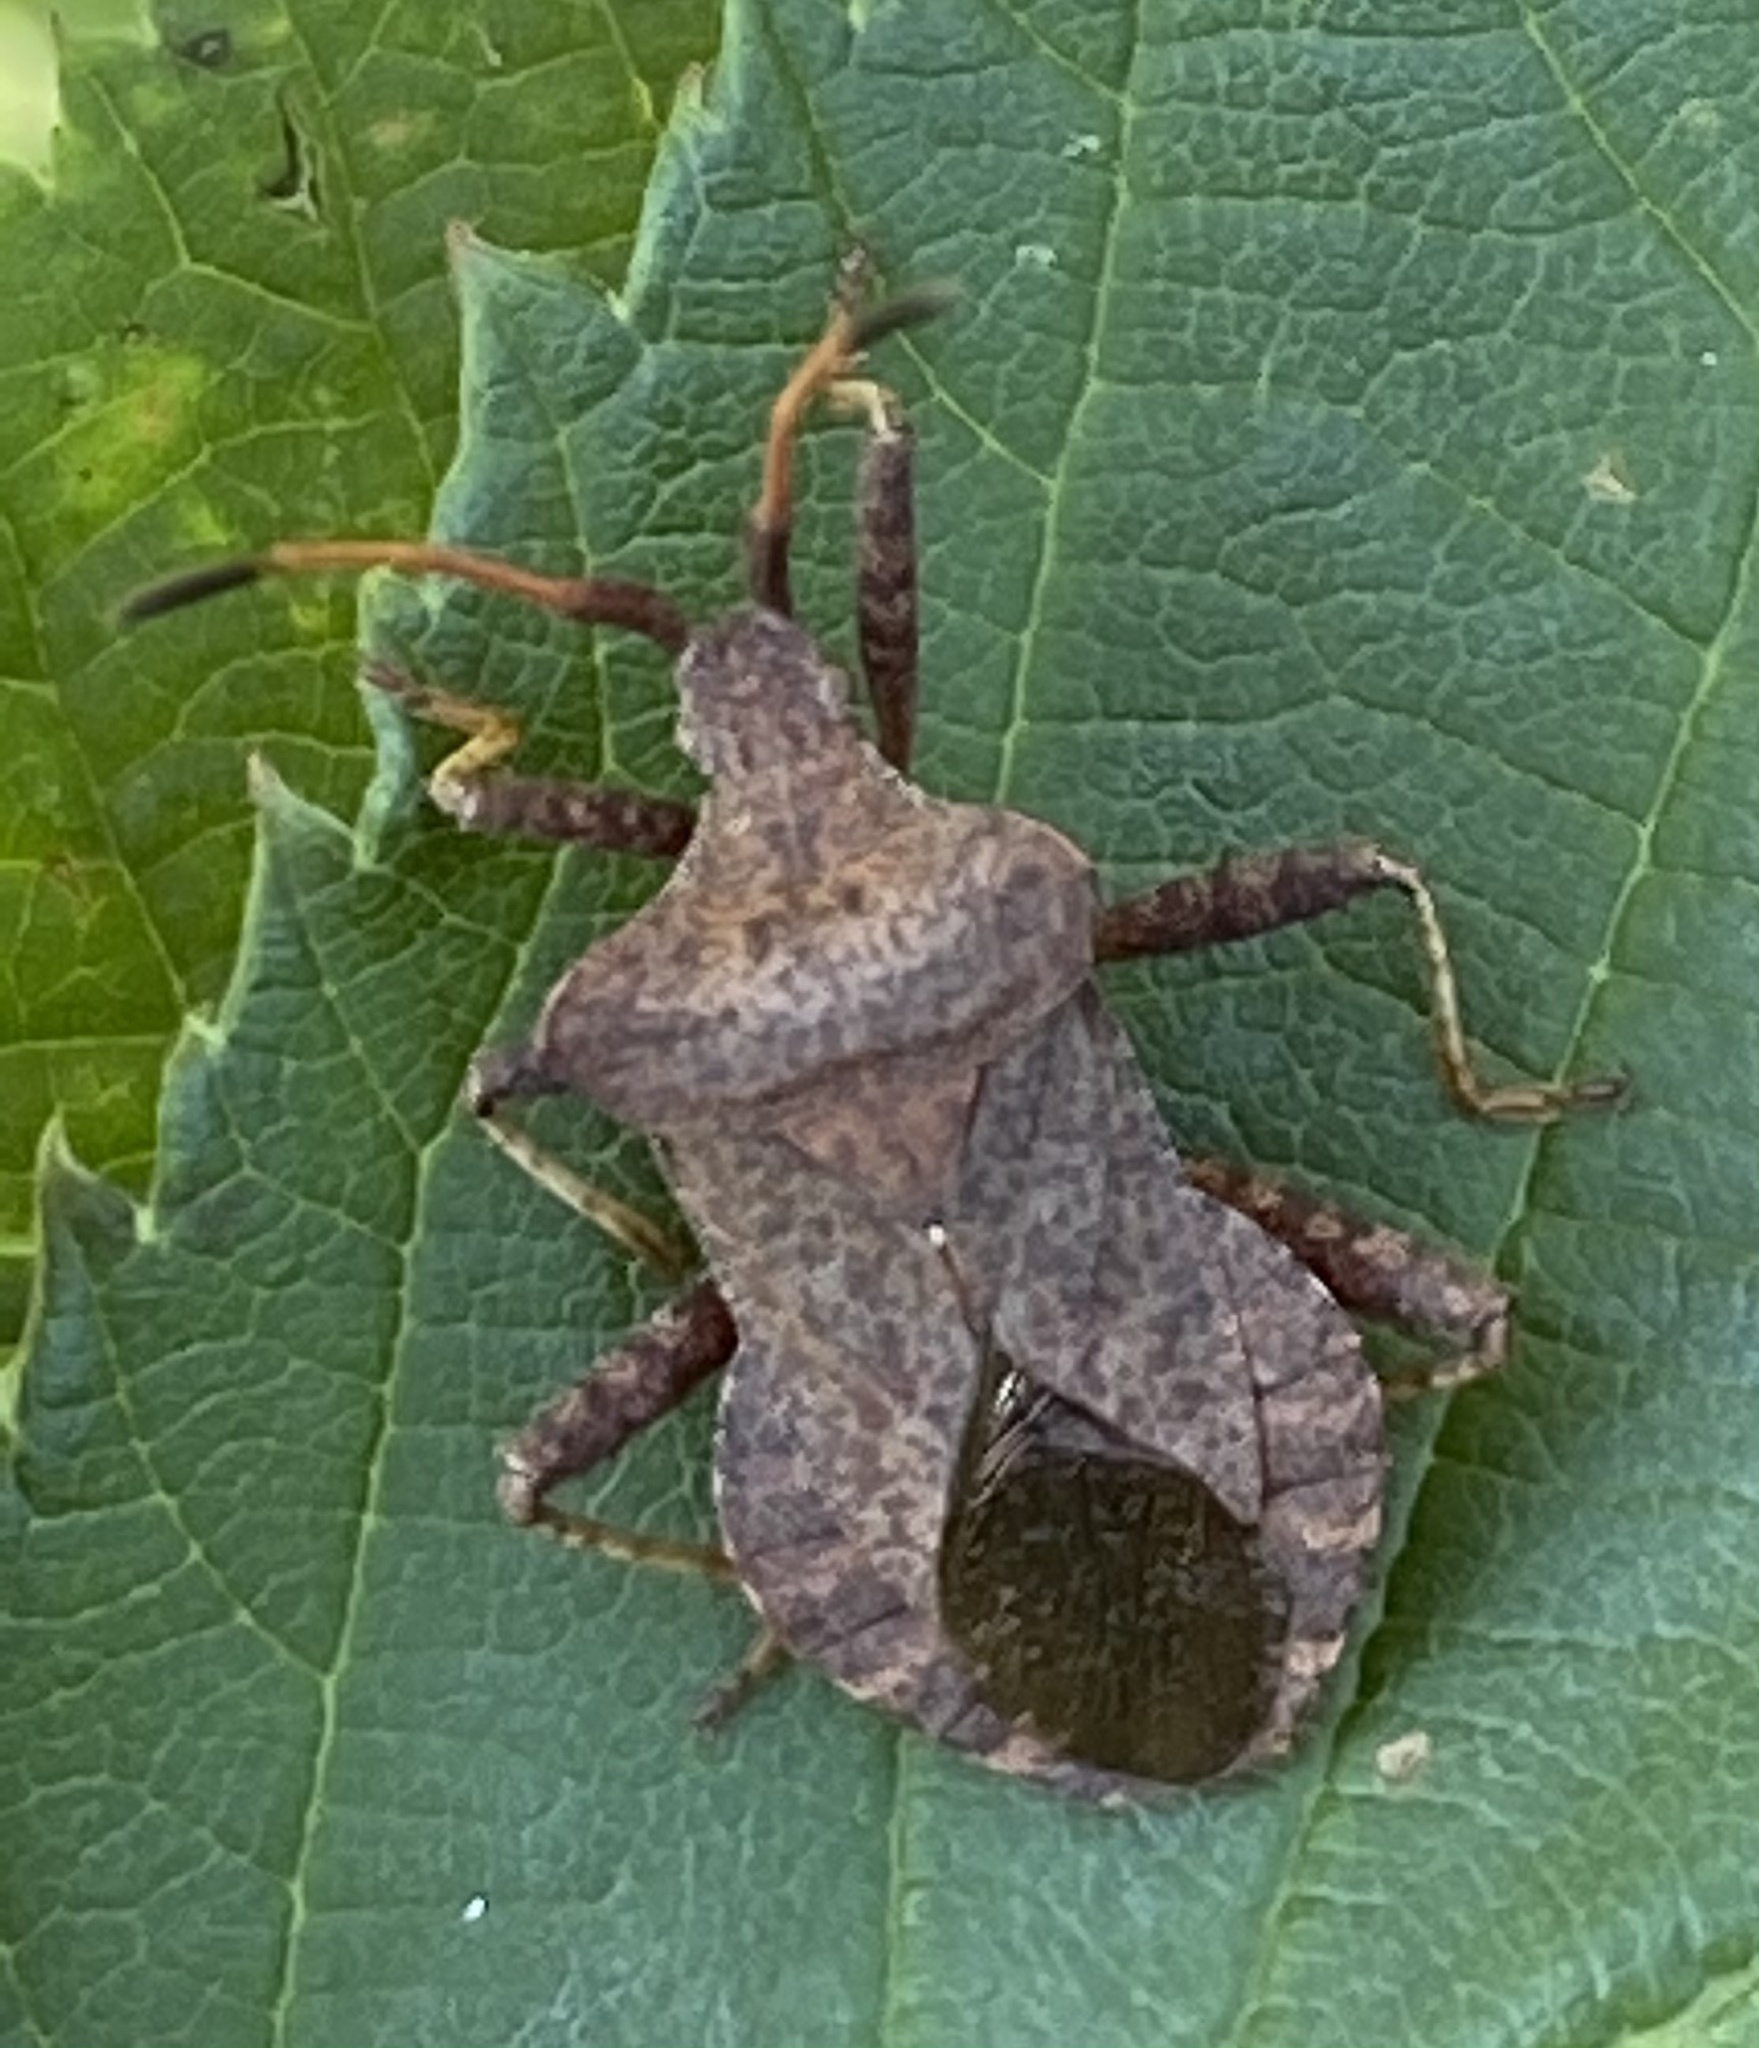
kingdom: Animalia
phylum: Arthropoda
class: Insecta
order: Hemiptera
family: Coreidae
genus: Coreus
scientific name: Coreus marginatus
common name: Dock bug
